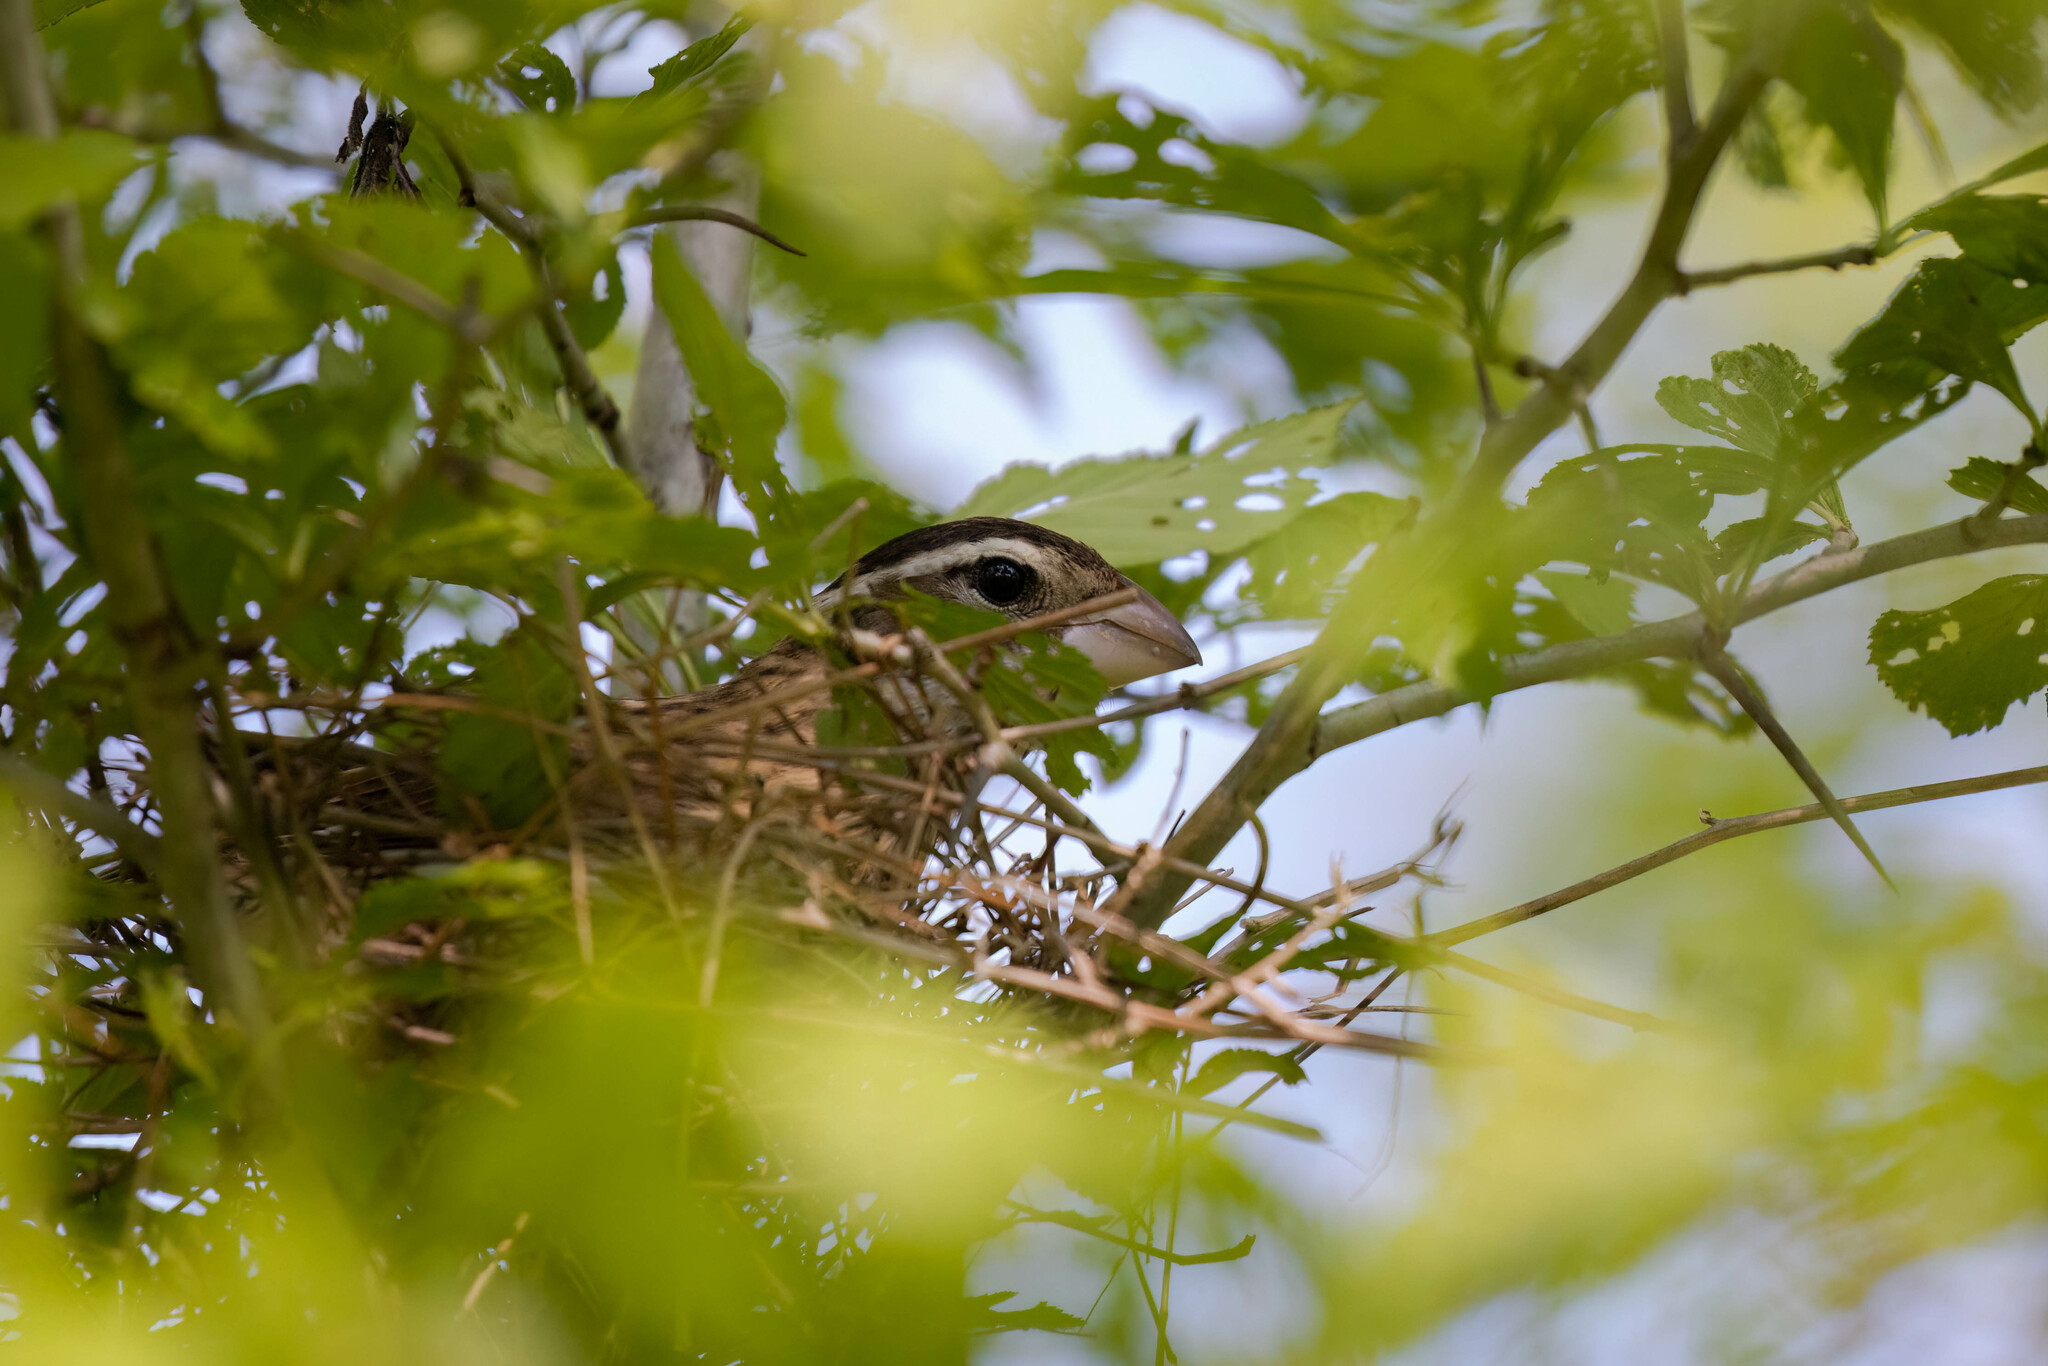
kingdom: Animalia
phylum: Chordata
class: Aves
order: Passeriformes
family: Cardinalidae
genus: Pheucticus
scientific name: Pheucticus ludovicianus
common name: Rose-breasted grosbeak
